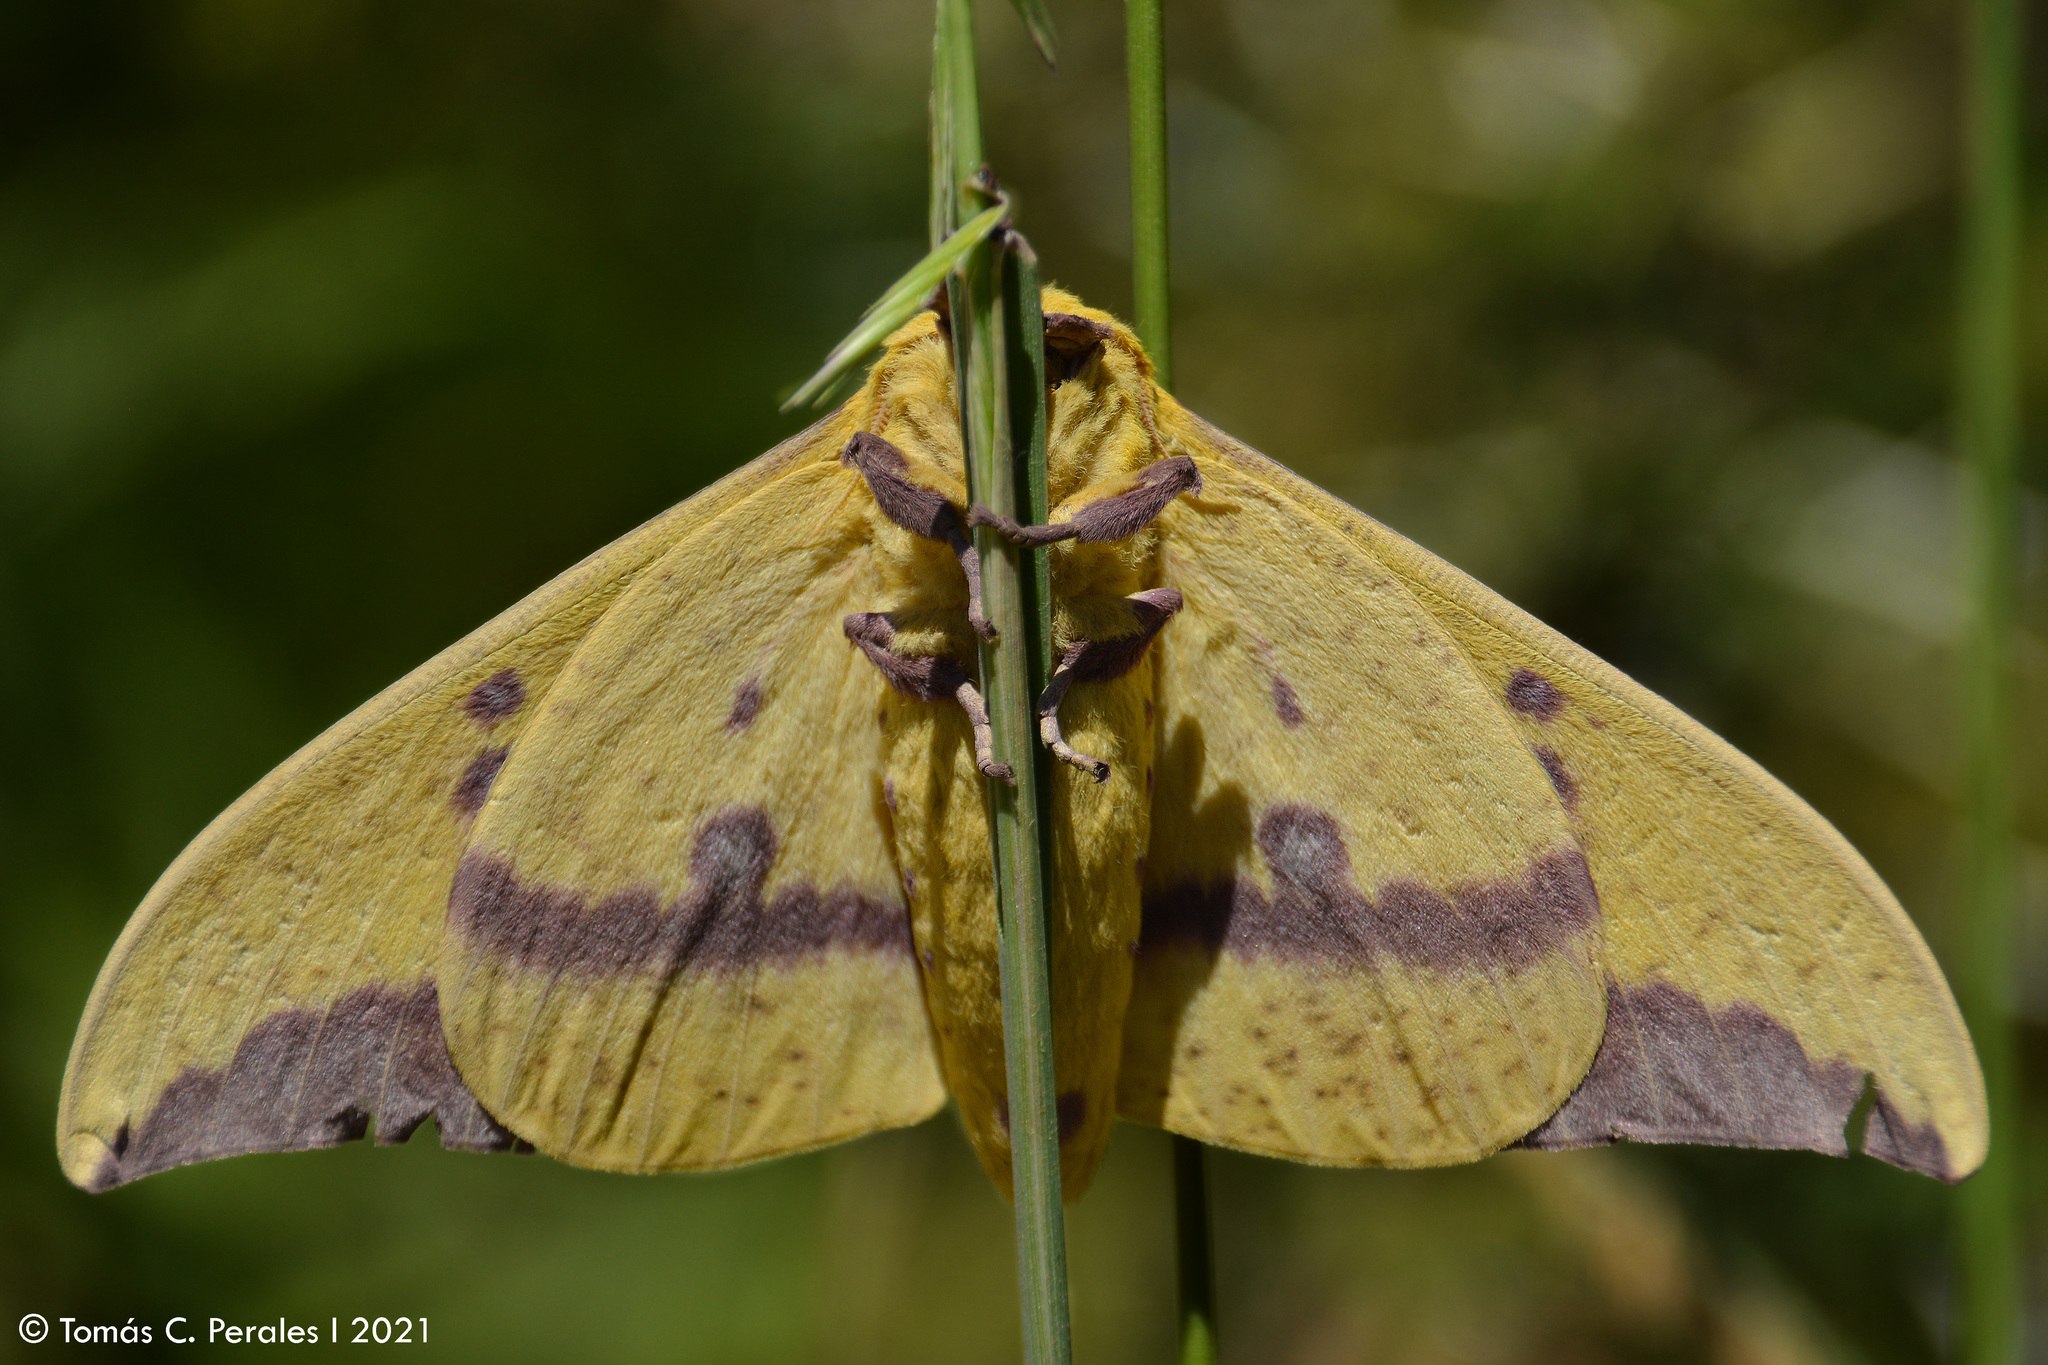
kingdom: Animalia
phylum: Arthropoda
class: Insecta
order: Lepidoptera
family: Saturniidae
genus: Eacles
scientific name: Eacles imperialis
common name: Imperial moth
